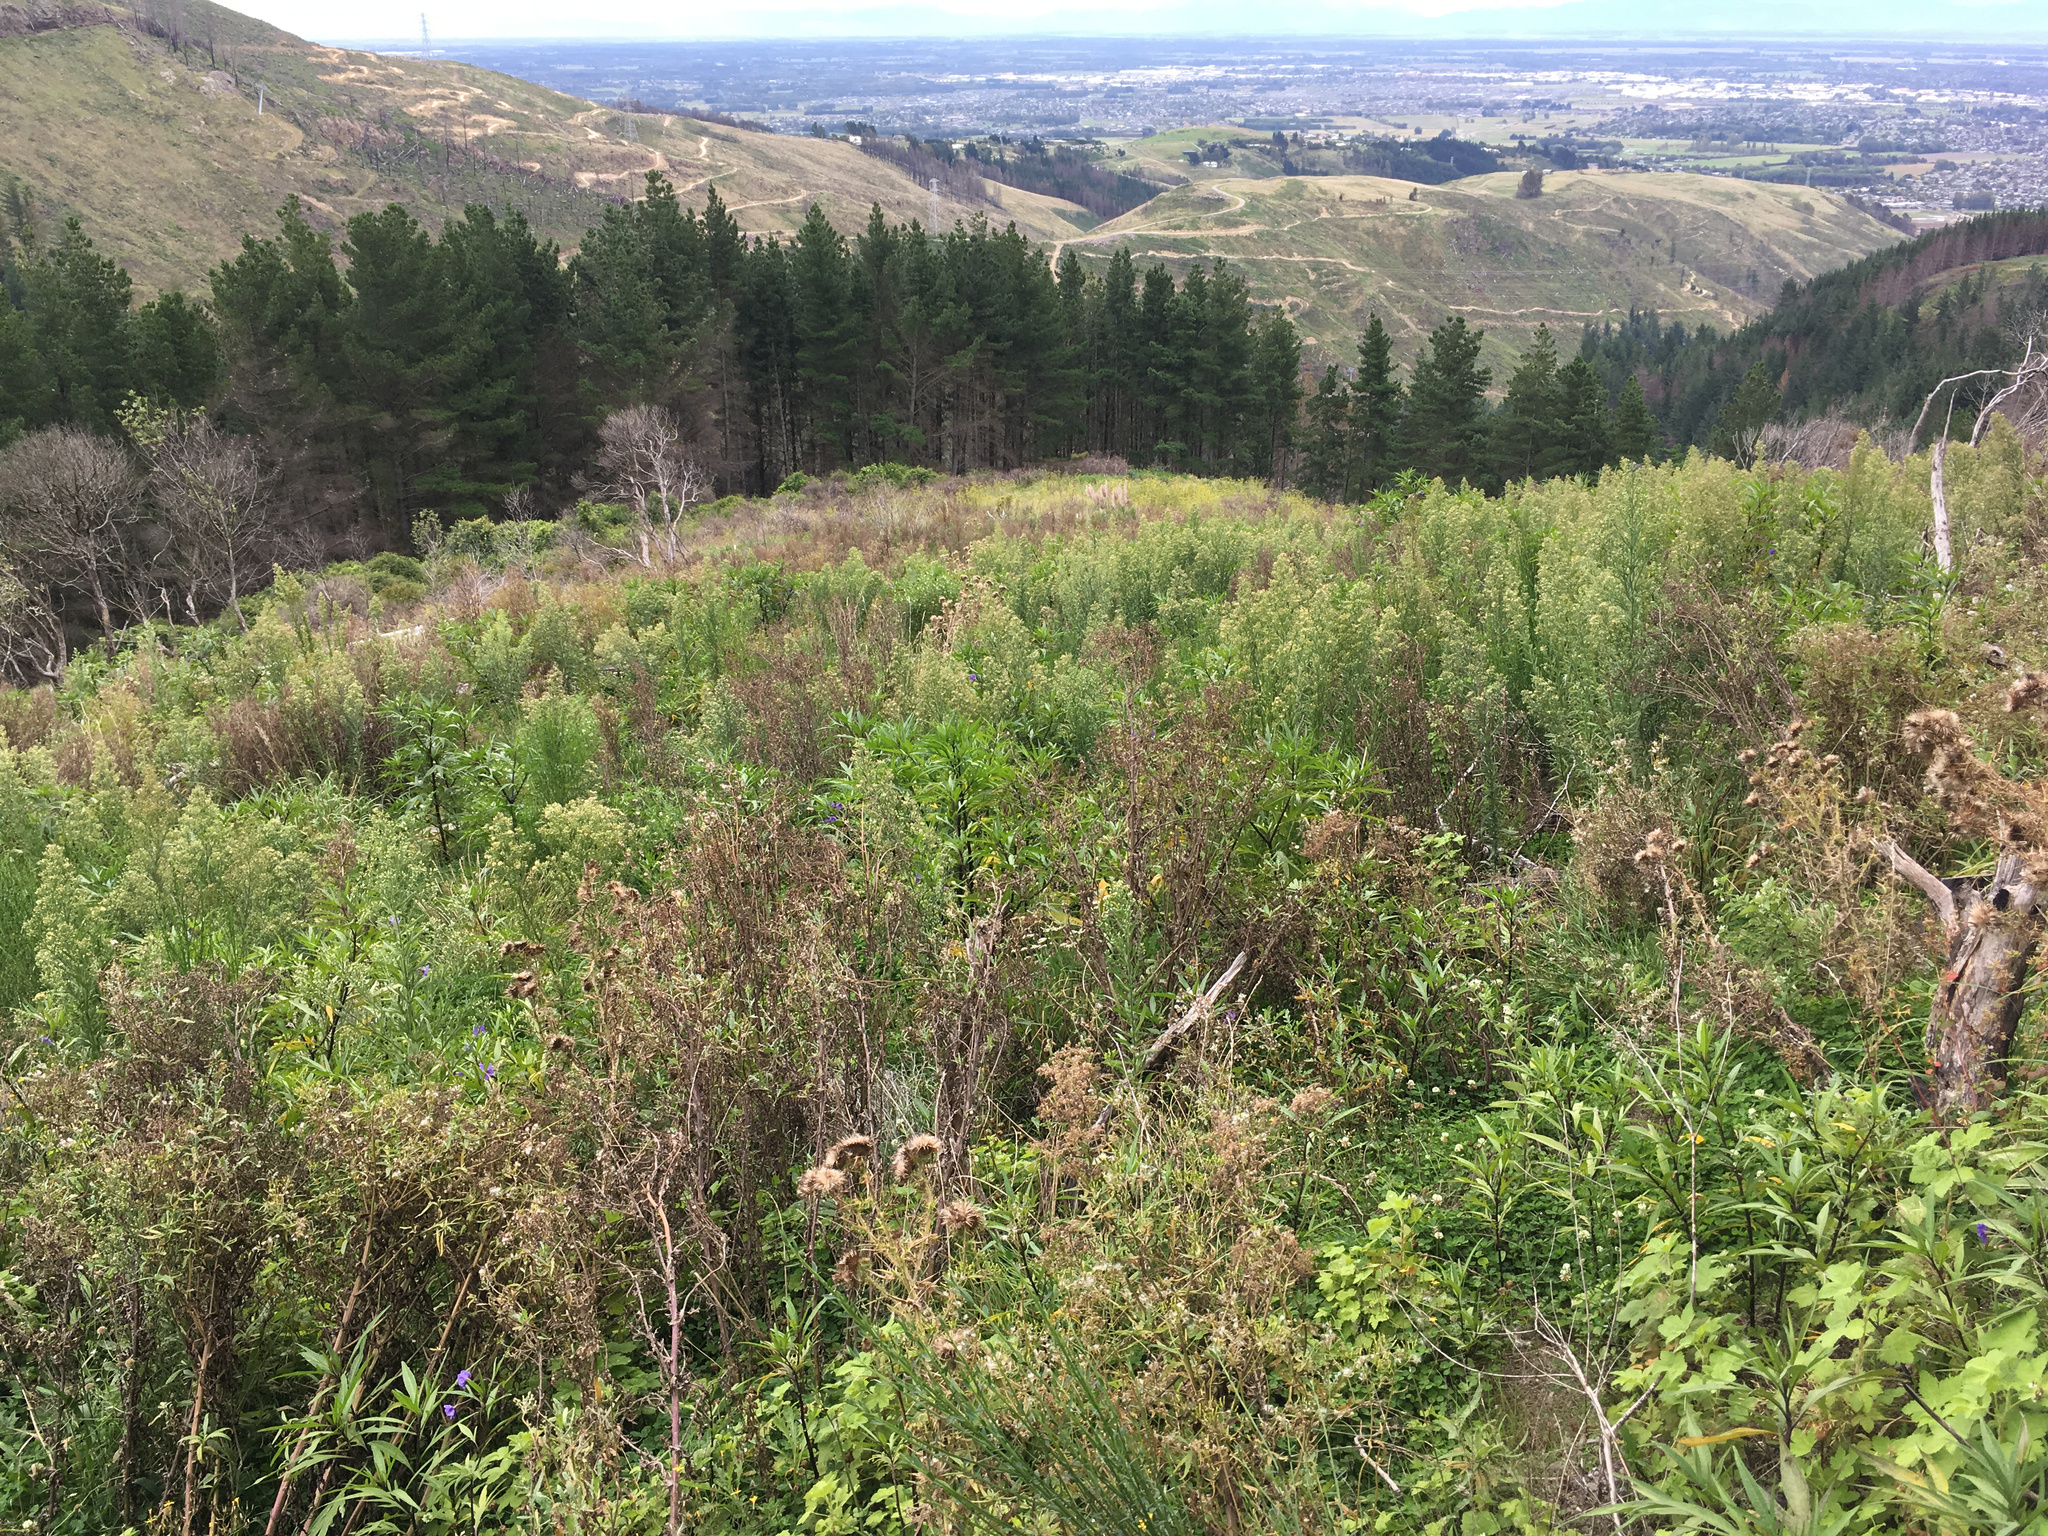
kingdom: Plantae
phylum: Tracheophyta
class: Magnoliopsida
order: Asterales
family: Asteraceae
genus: Senecio
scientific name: Senecio glomeratus
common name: Cutleaf burnweed
